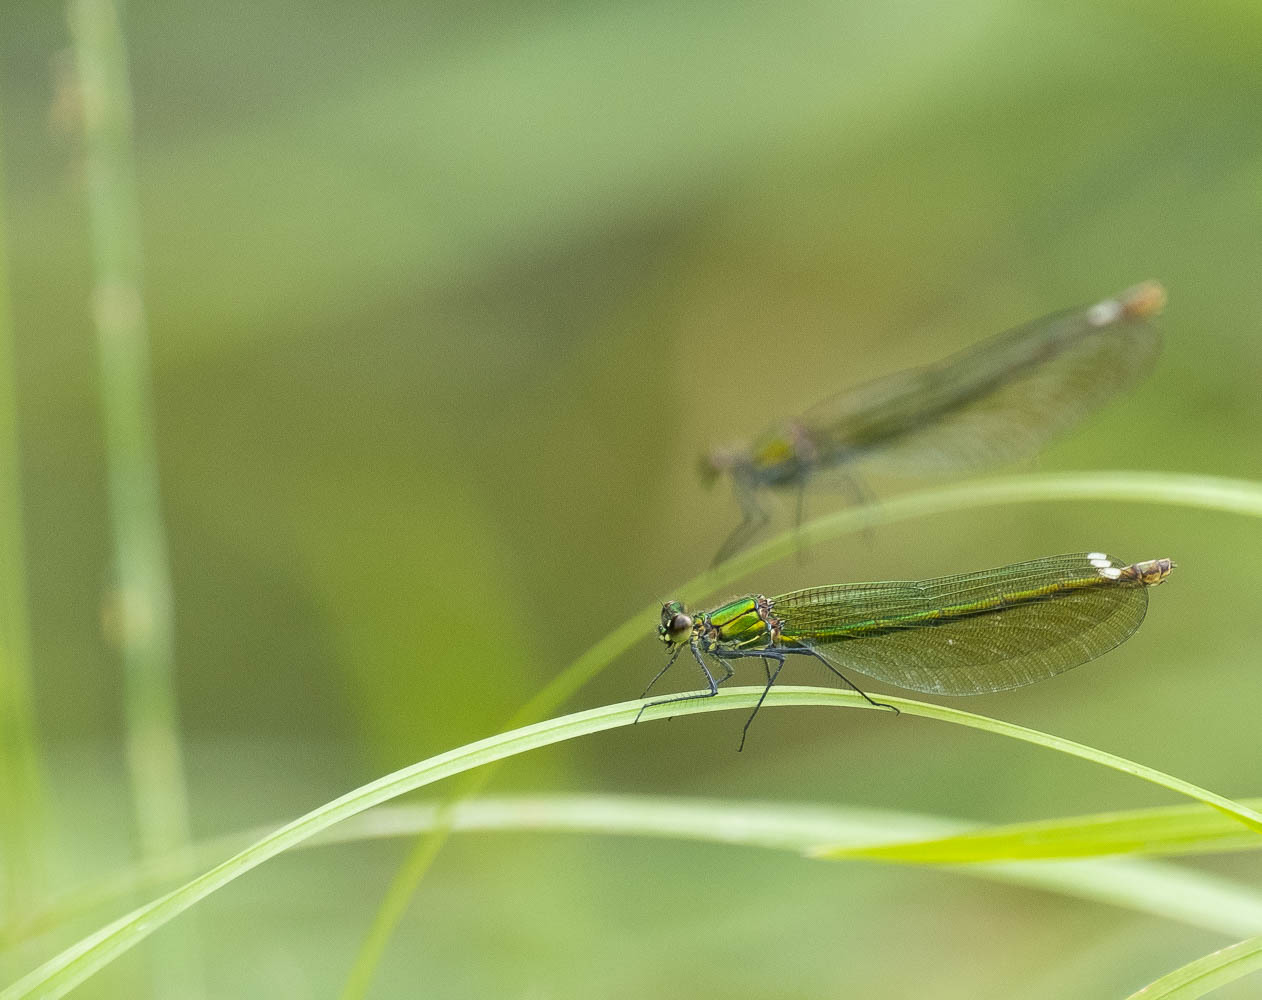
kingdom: Animalia
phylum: Arthropoda
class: Insecta
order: Odonata
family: Calopterygidae
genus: Calopteryx
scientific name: Calopteryx splendens
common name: Banded demoiselle
